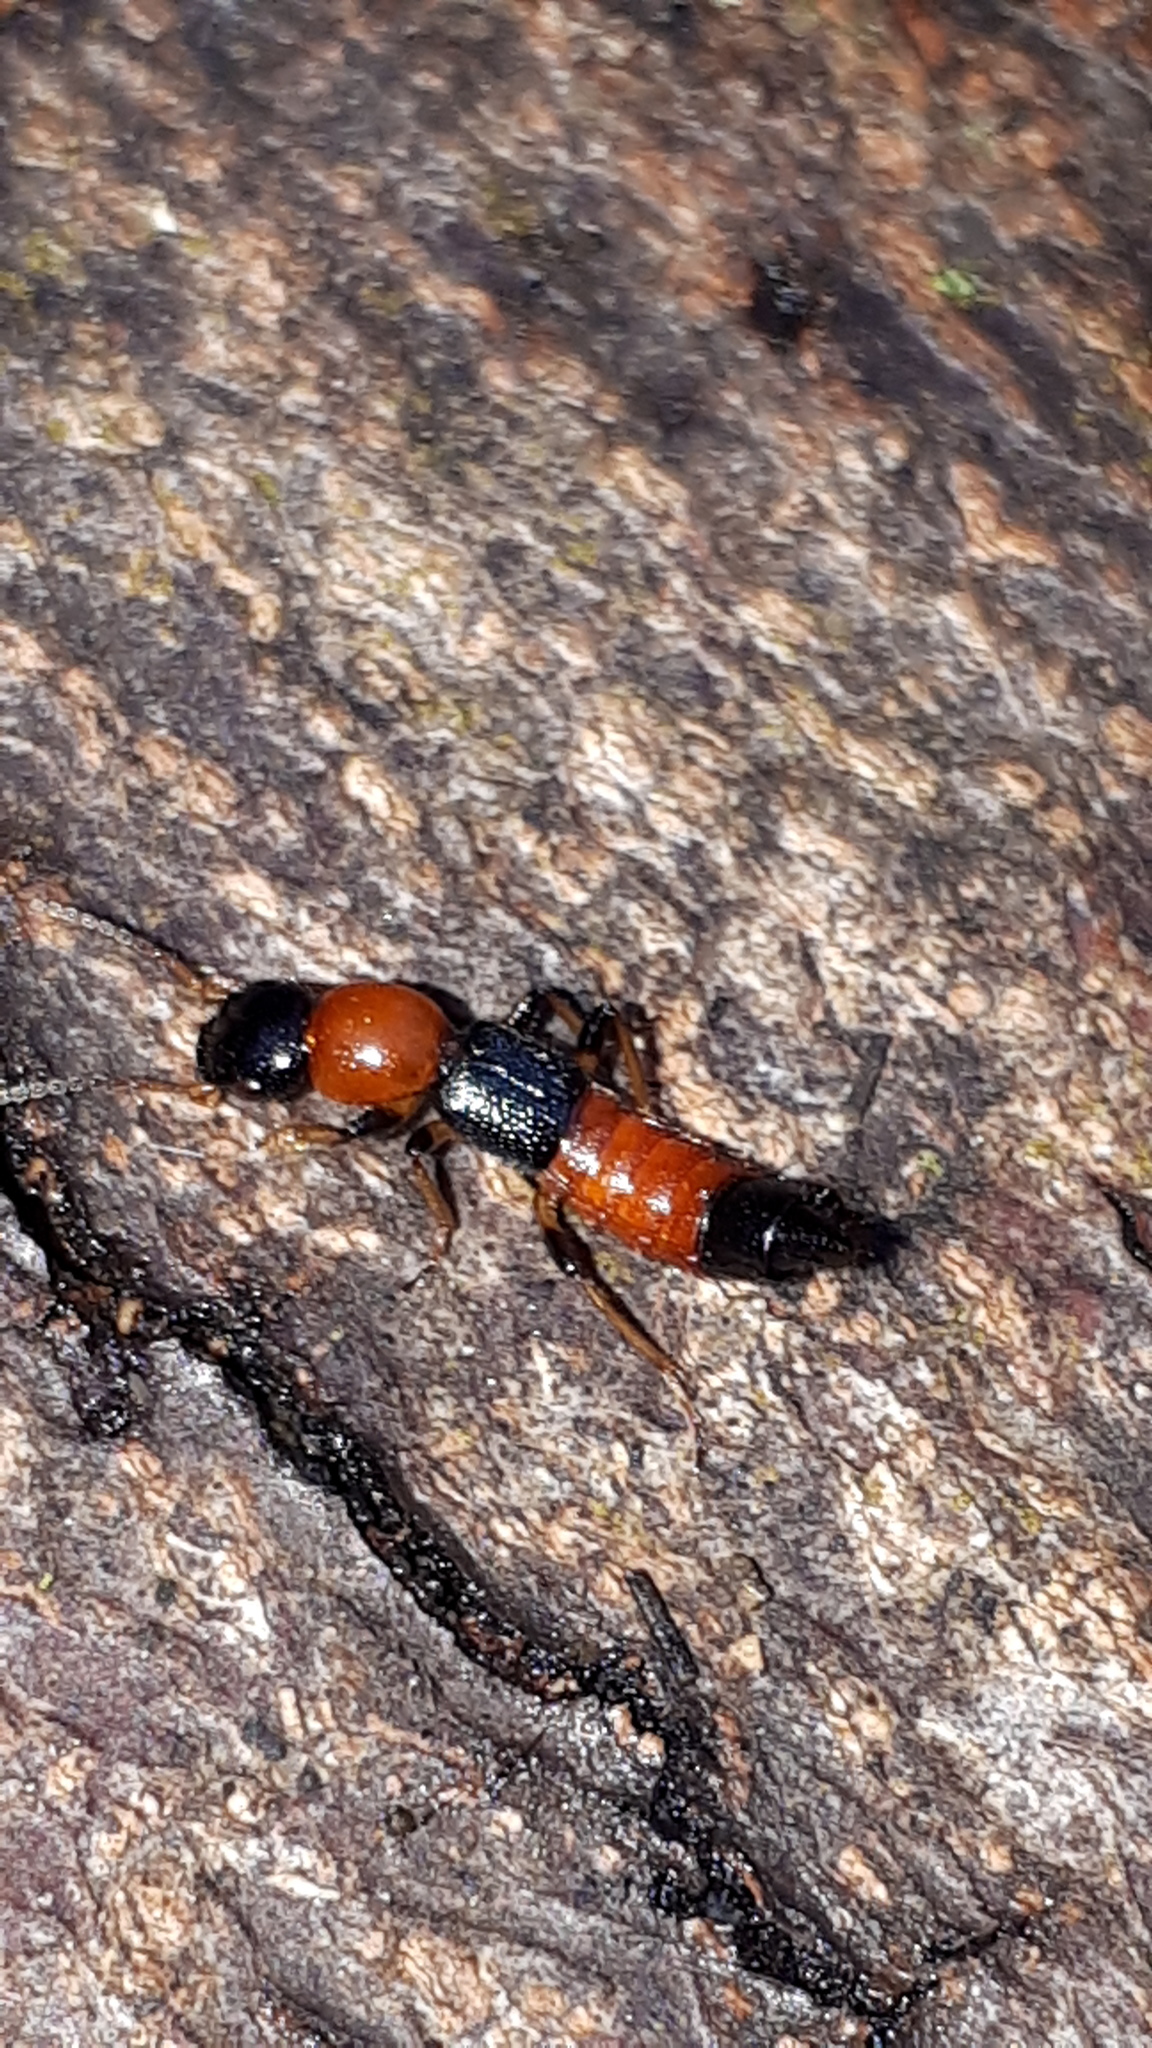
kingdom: Animalia
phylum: Arthropoda
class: Insecta
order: Coleoptera
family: Staphylinidae
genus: Paederus
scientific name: Paederus littoralis
